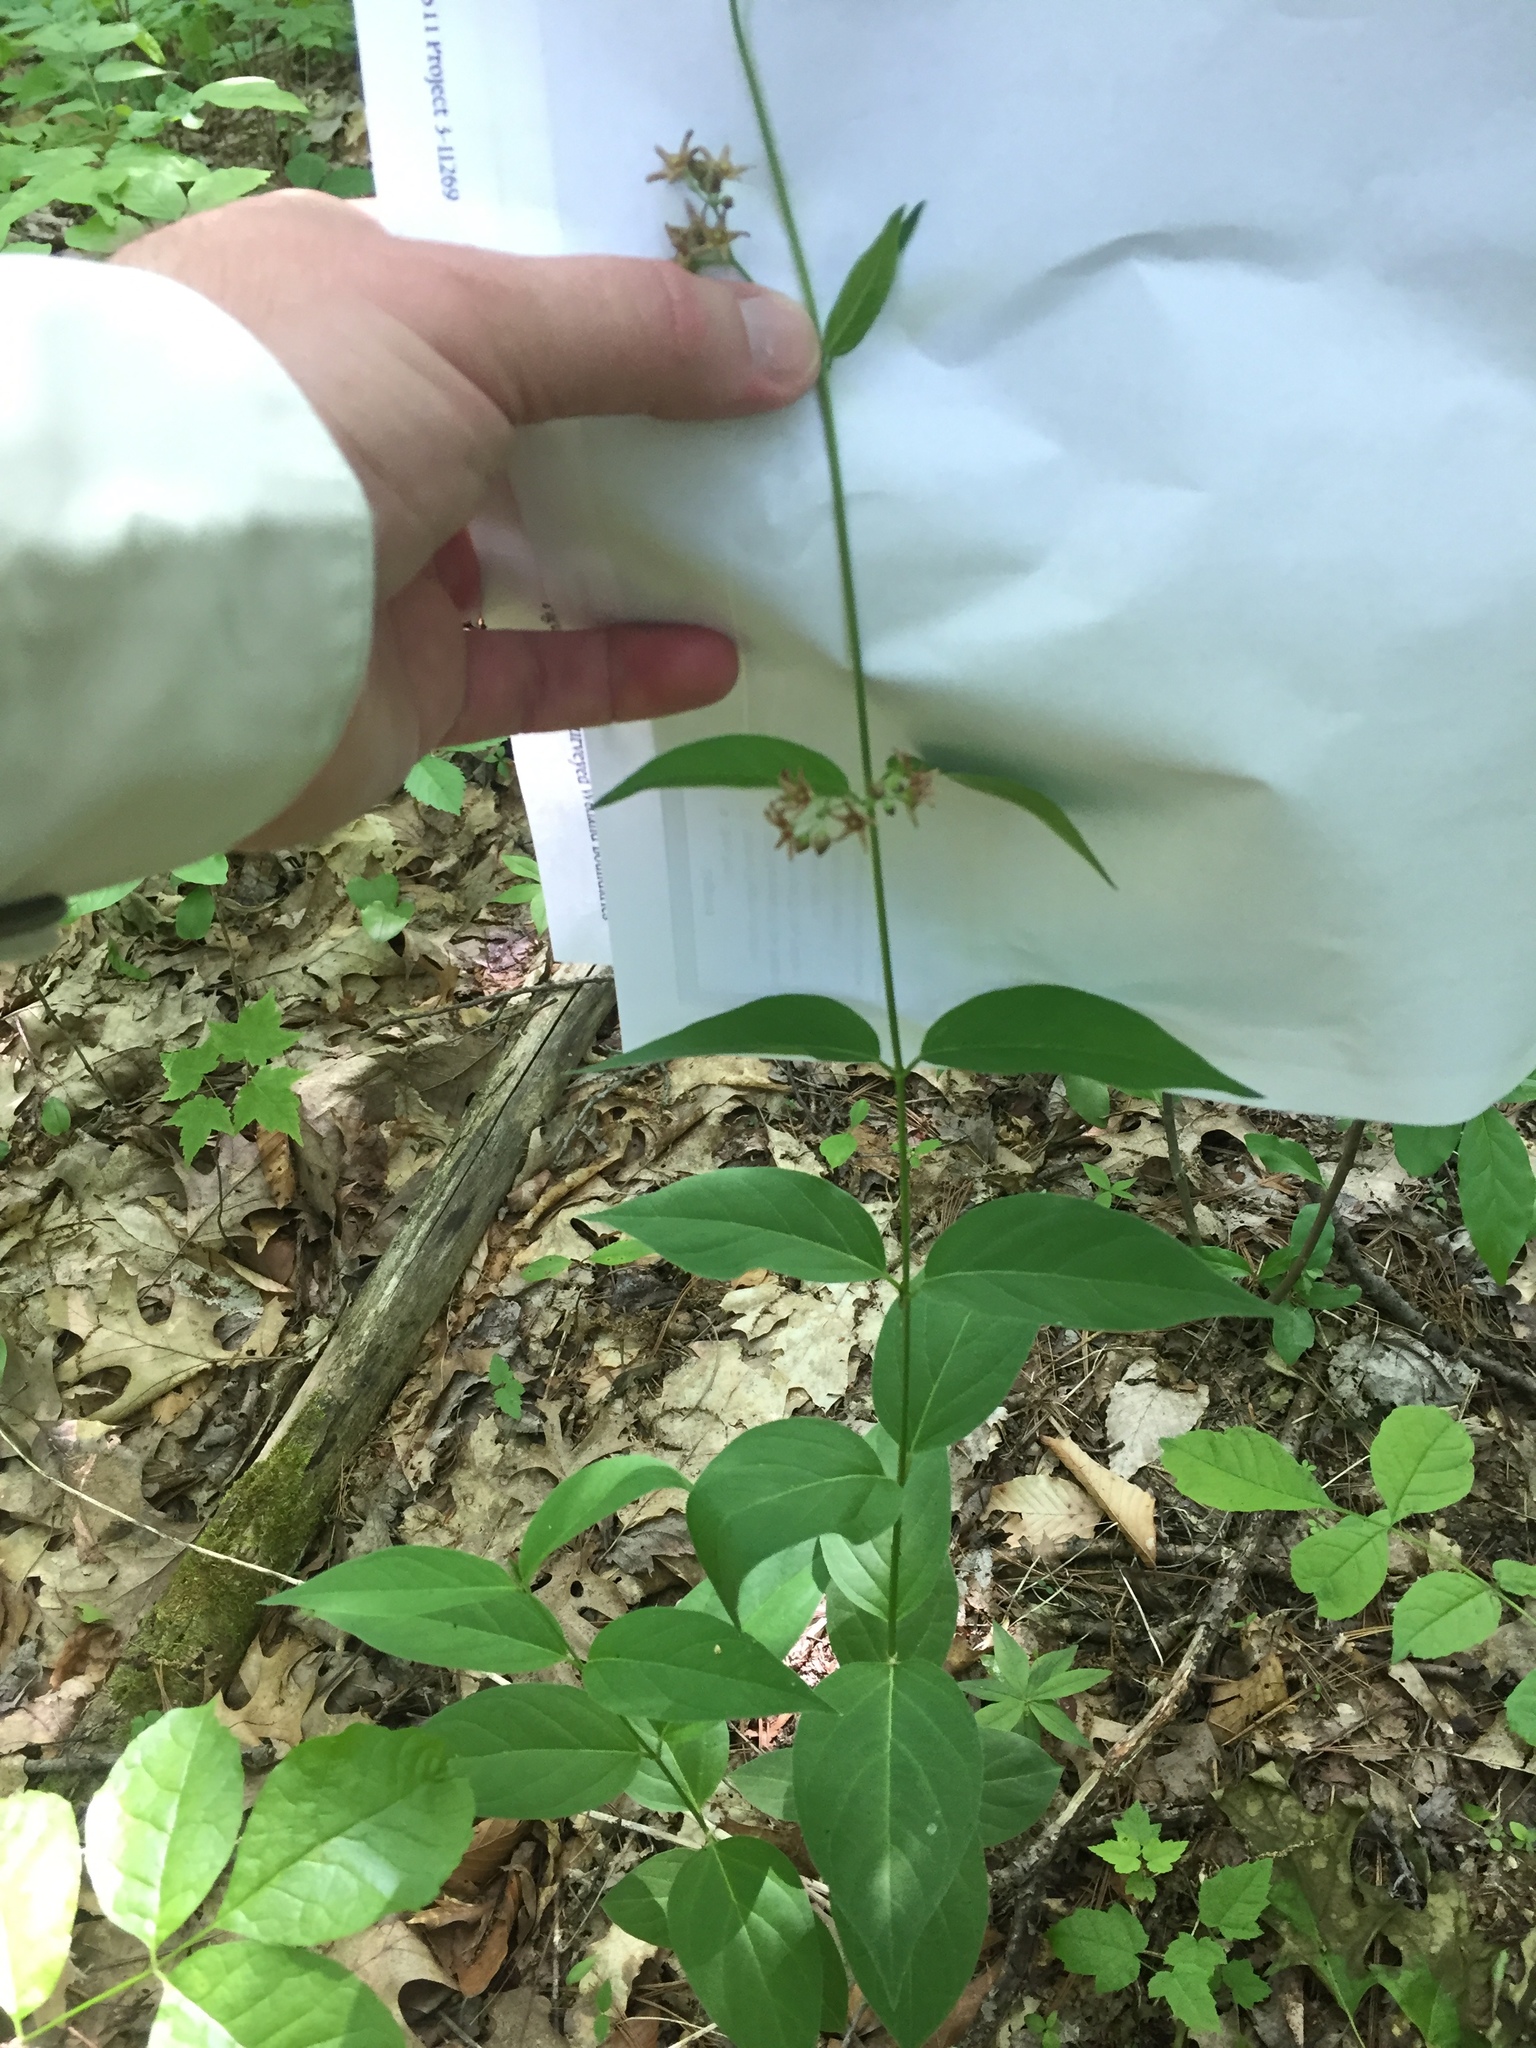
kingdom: Plantae
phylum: Tracheophyta
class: Magnoliopsida
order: Gentianales
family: Apocynaceae
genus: Vincetoxicum
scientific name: Vincetoxicum rossicum
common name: Dog-strangling vine
